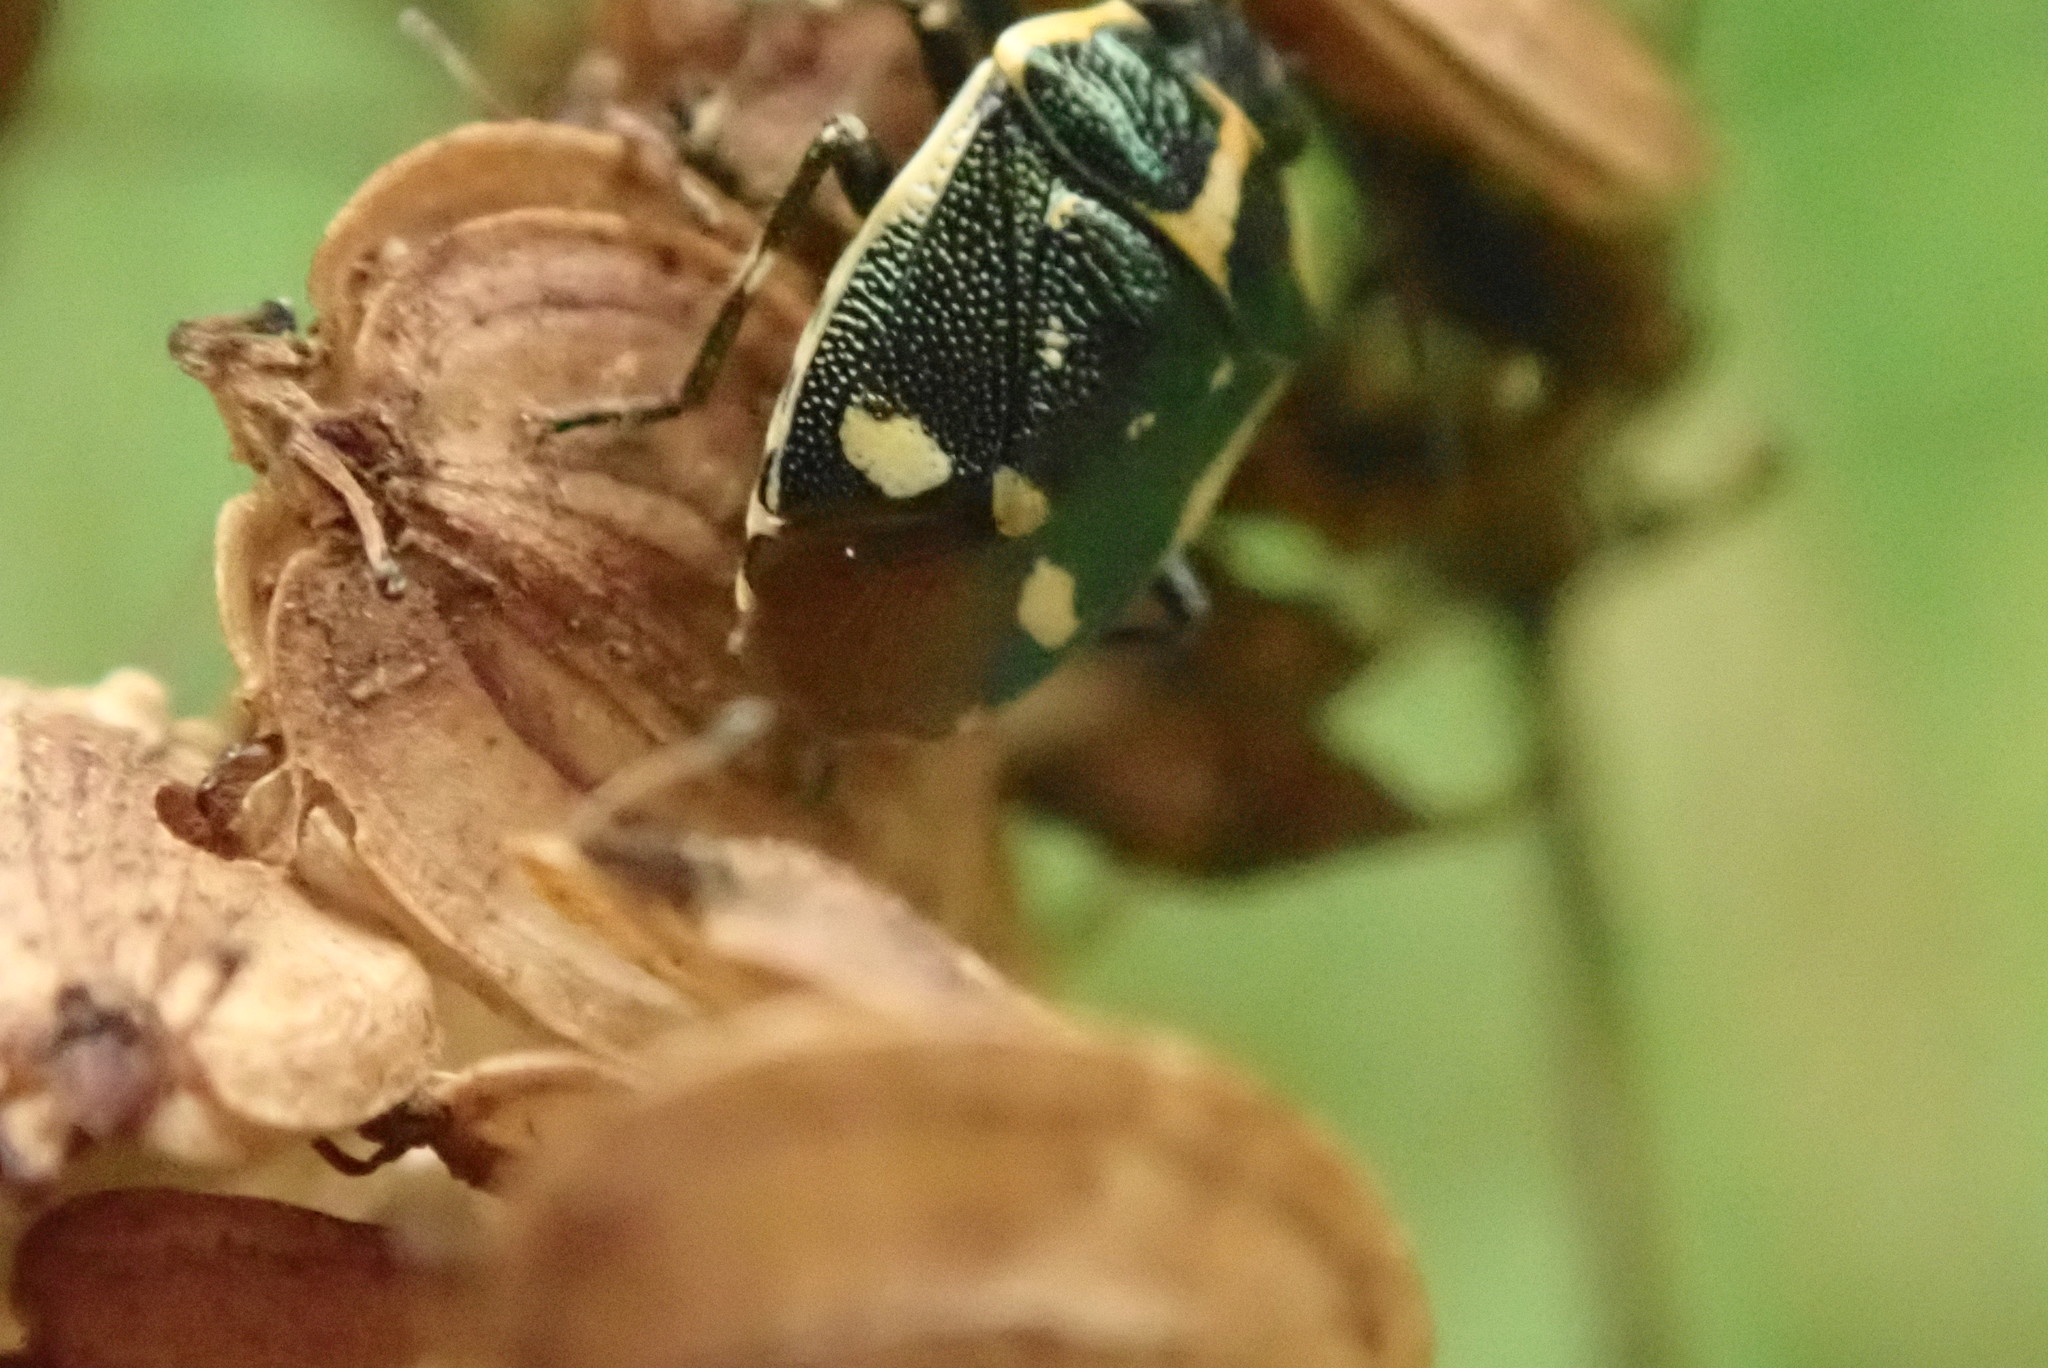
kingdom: Animalia
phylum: Arthropoda
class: Insecta
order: Hemiptera
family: Pentatomidae
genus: Eurydema
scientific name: Eurydema oleracea
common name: Cabbage bug
